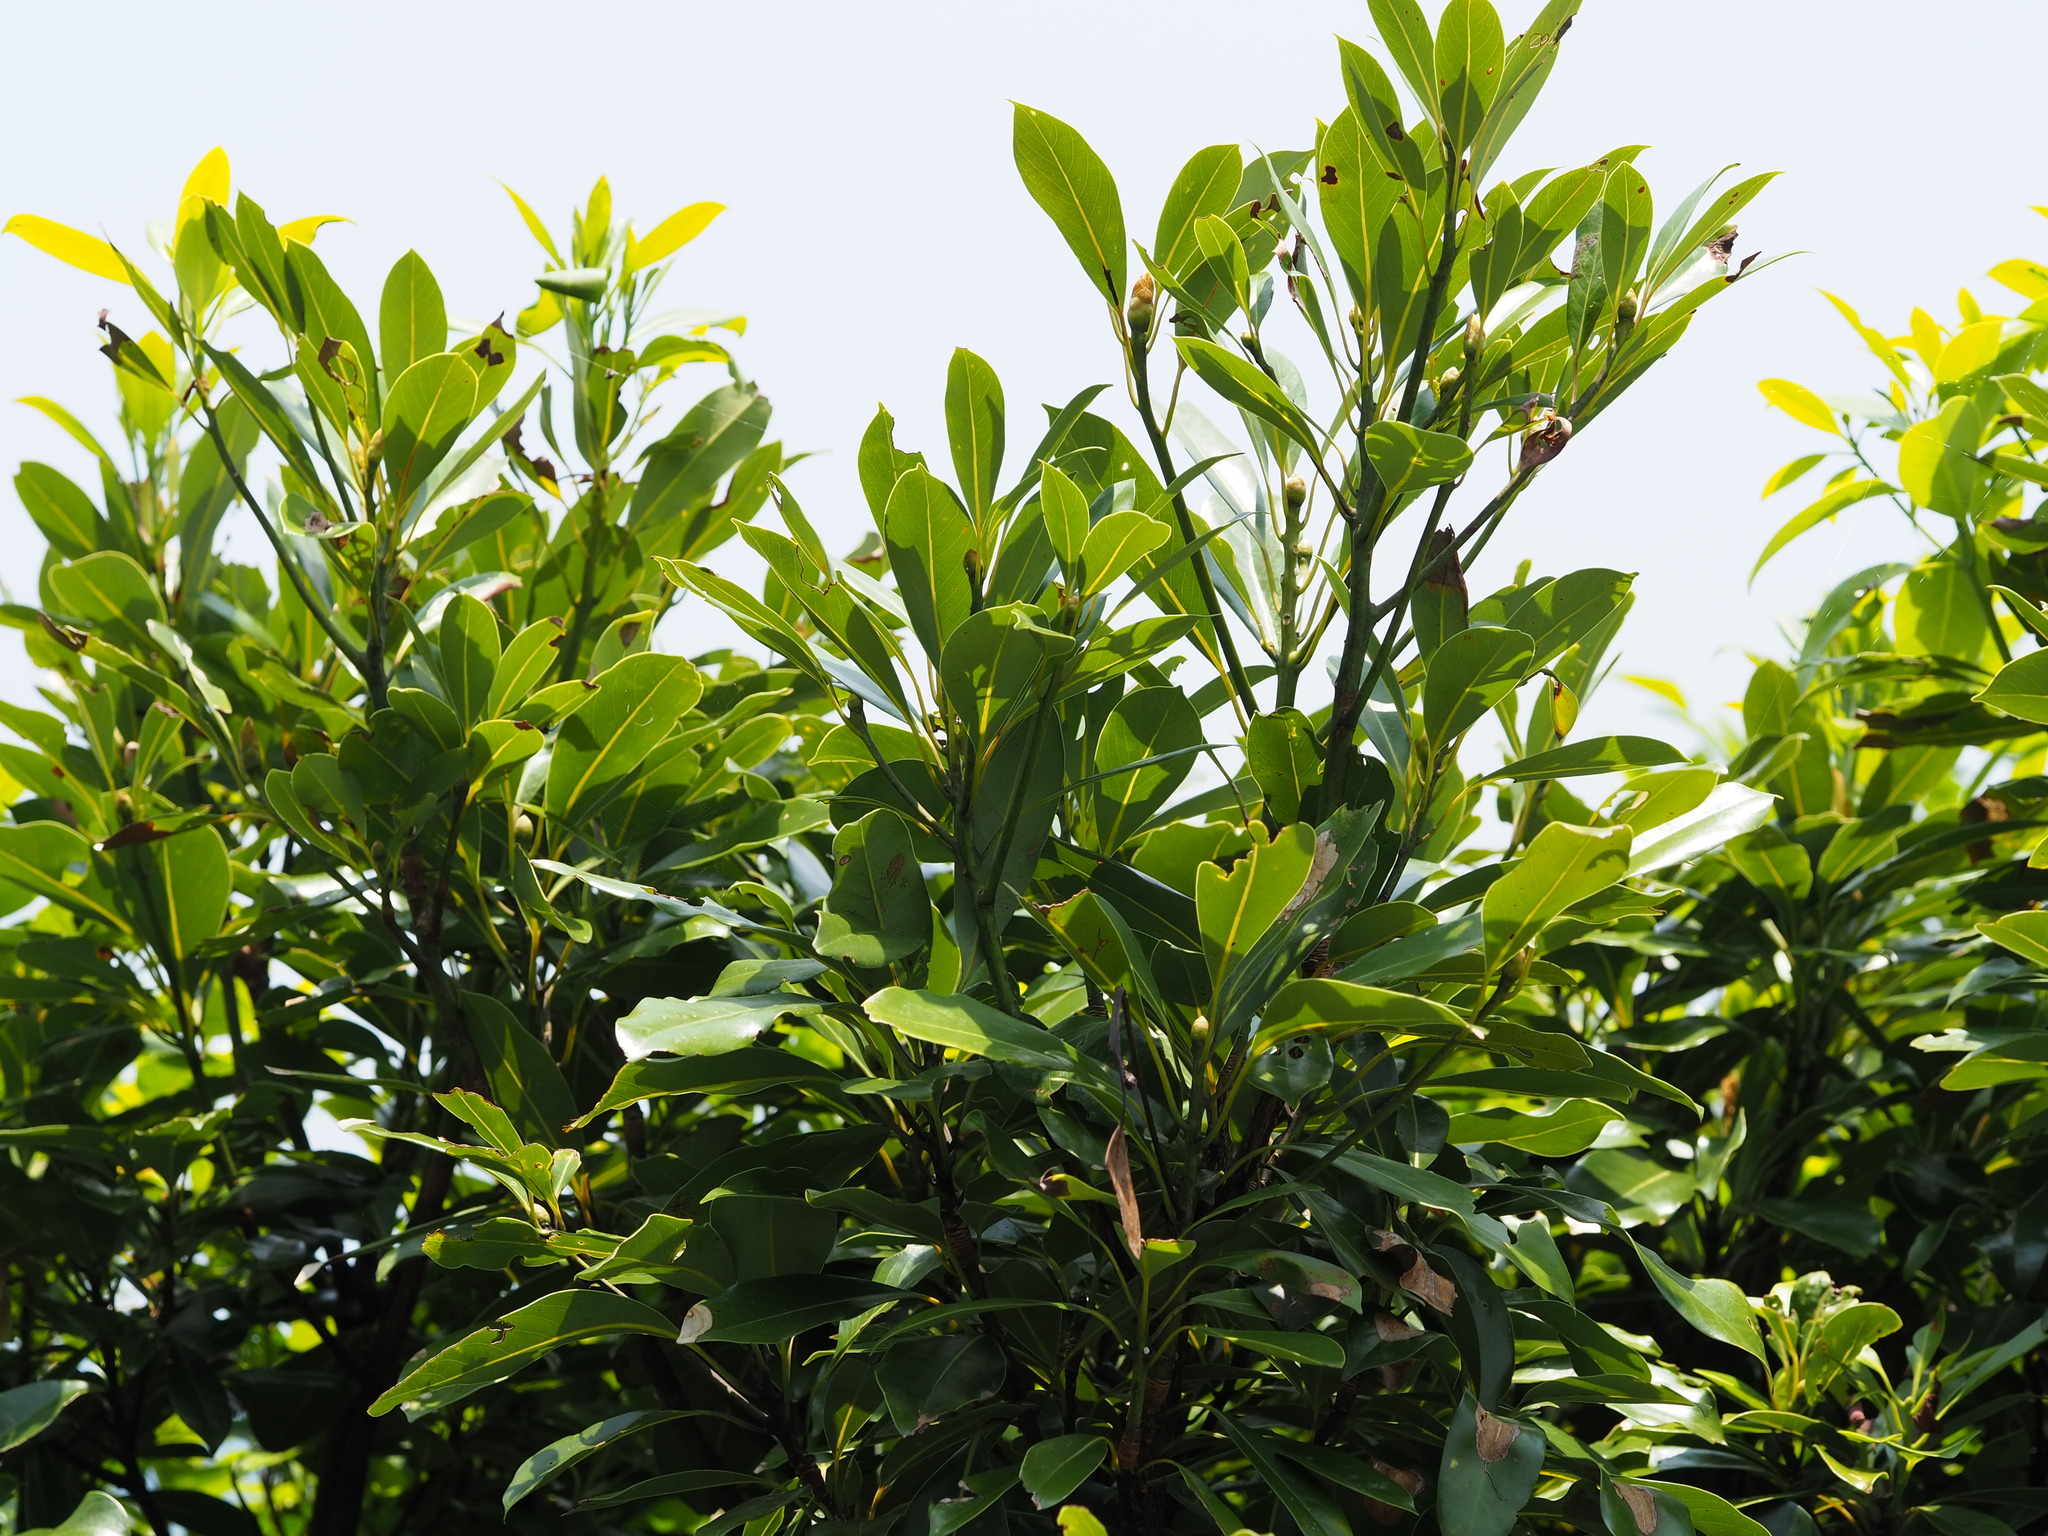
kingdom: Plantae
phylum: Tracheophyta
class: Magnoliopsida
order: Laurales
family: Lauraceae
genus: Machilus
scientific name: Machilus thunbergii
